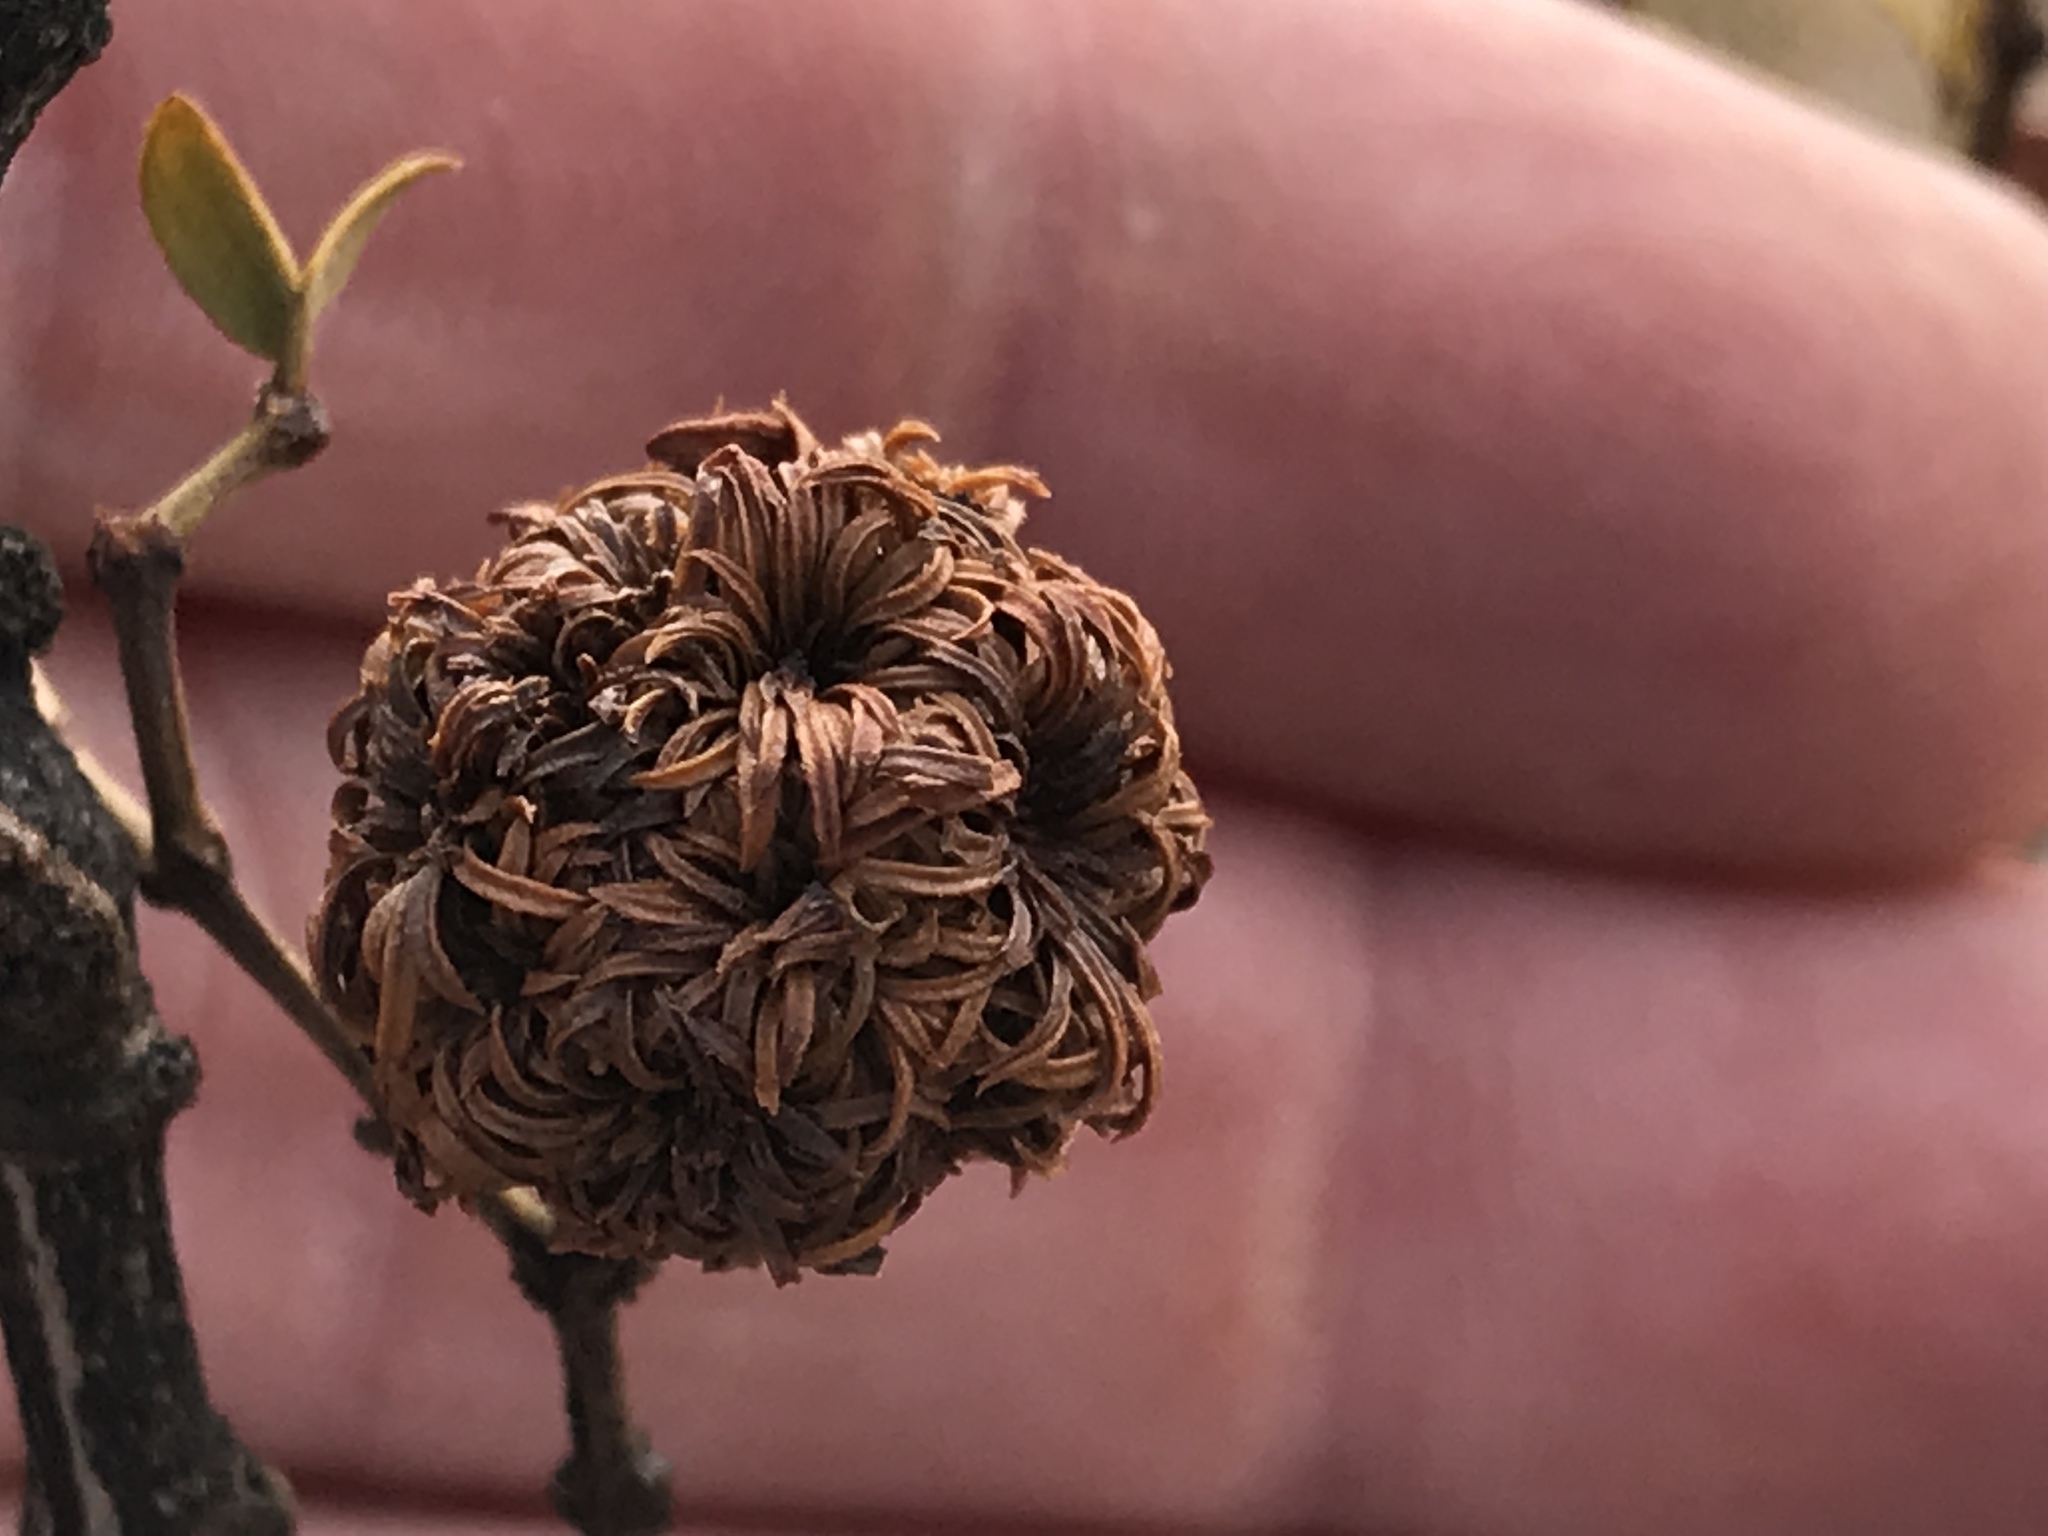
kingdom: Animalia
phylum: Arthropoda
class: Insecta
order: Diptera
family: Cecidomyiidae
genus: Asphondylia
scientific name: Asphondylia auripila
